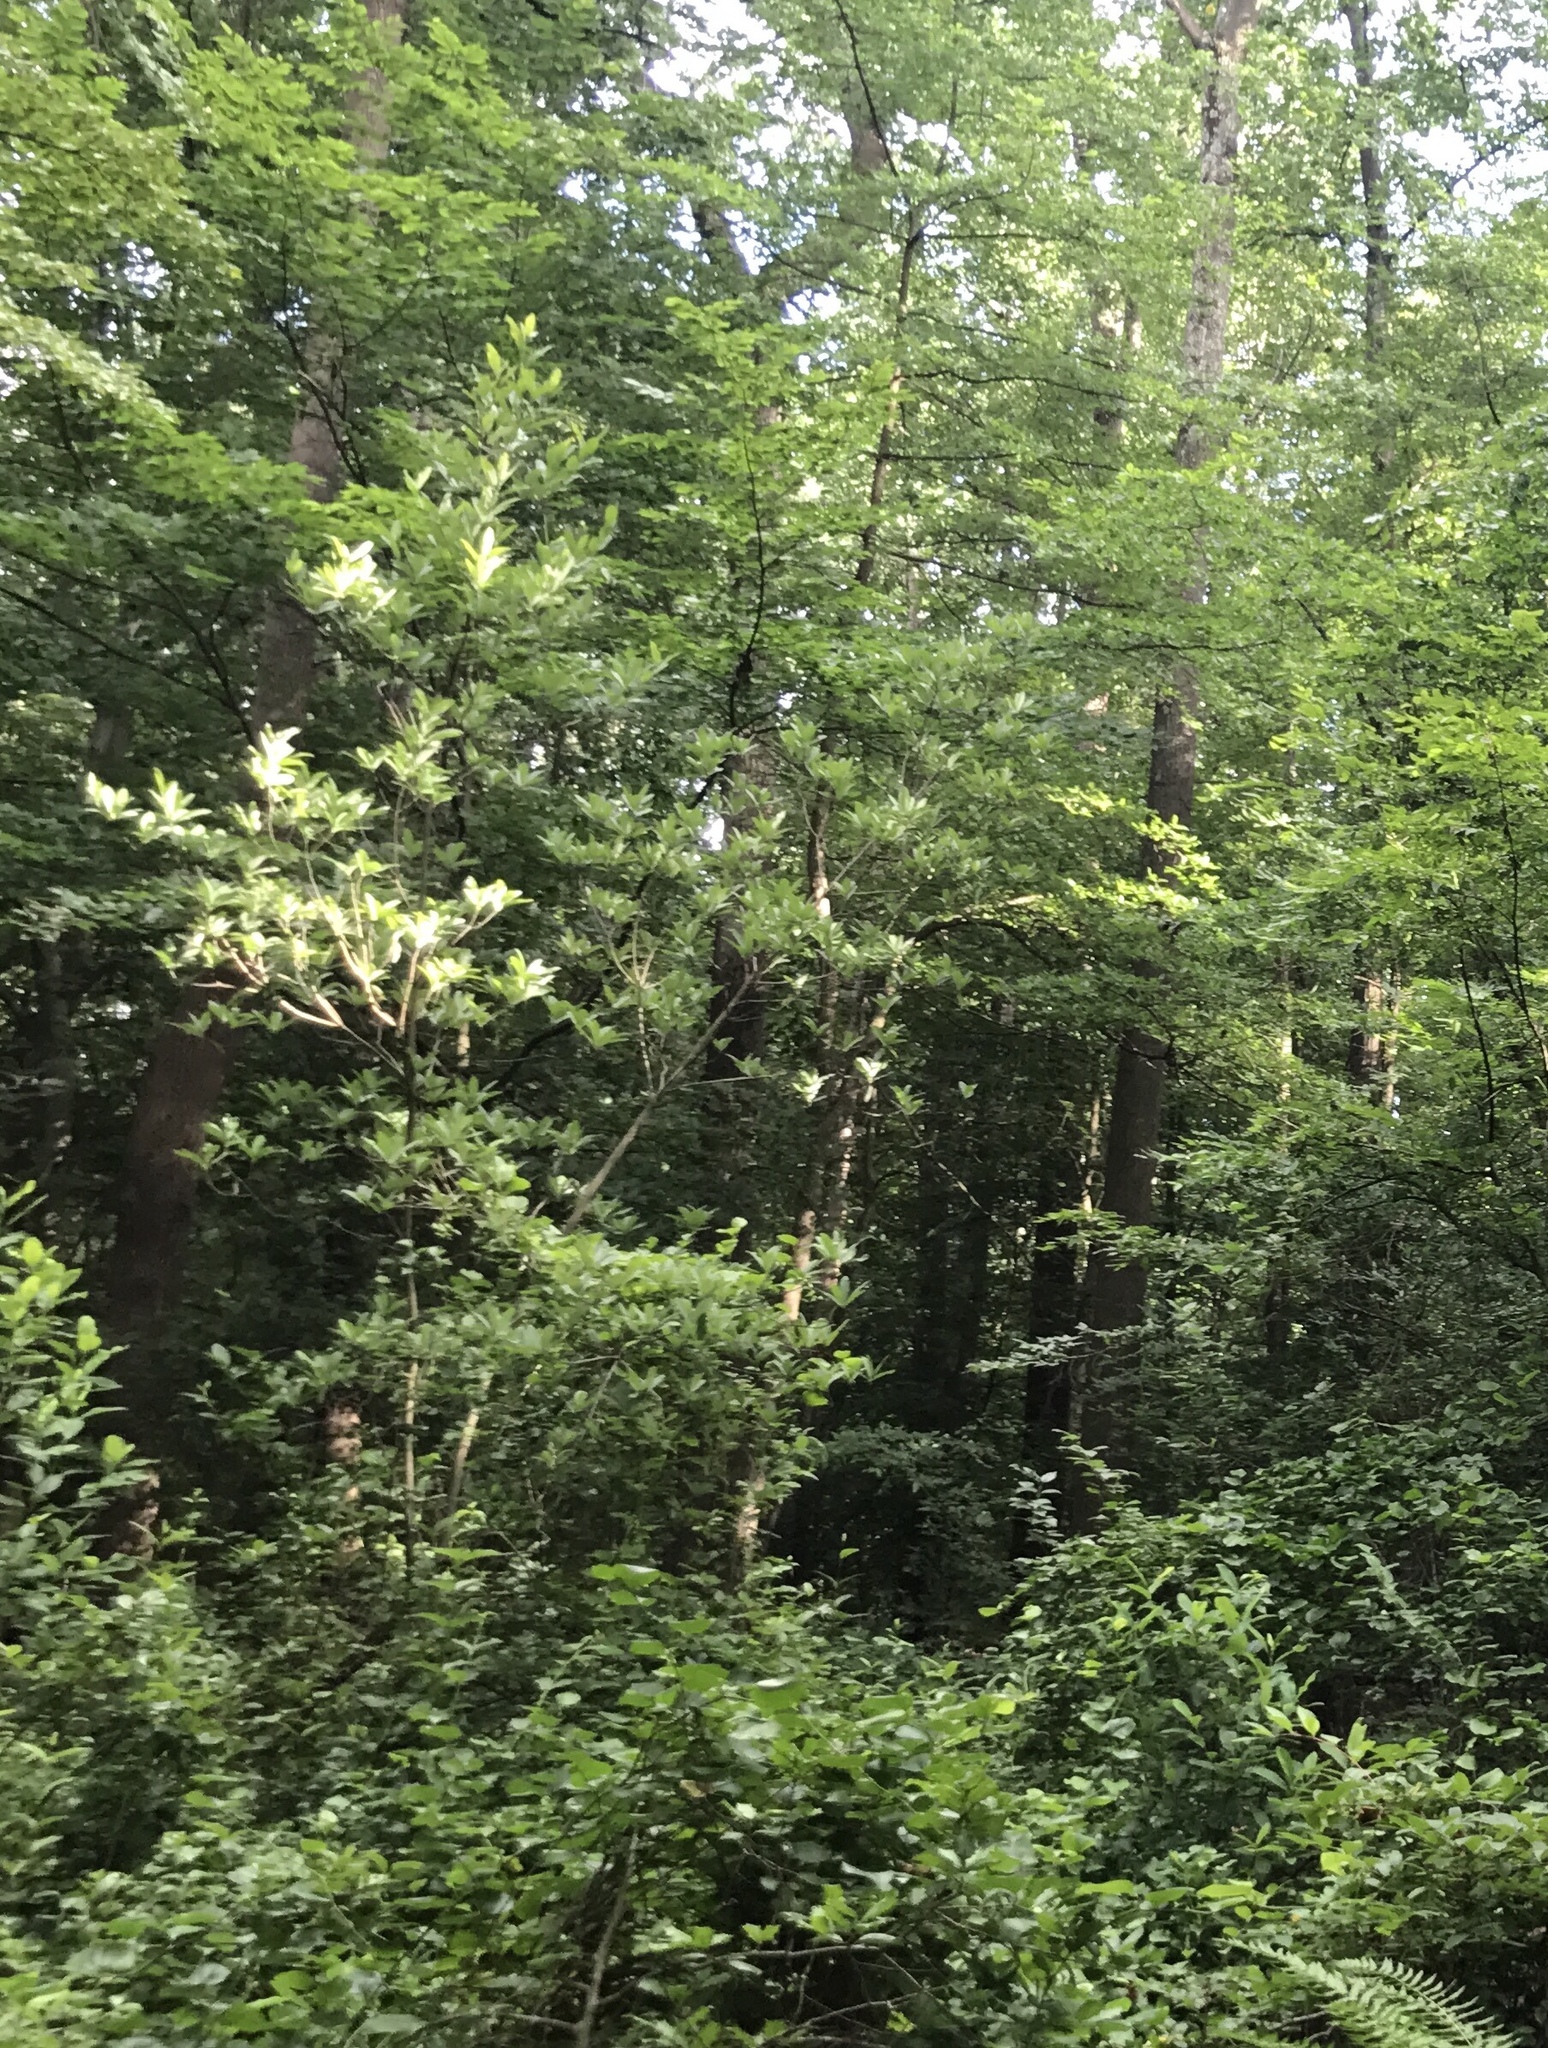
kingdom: Plantae
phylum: Tracheophyta
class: Magnoliopsida
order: Magnoliales
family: Magnoliaceae
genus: Magnolia
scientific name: Magnolia virginiana
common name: Swamp bay
